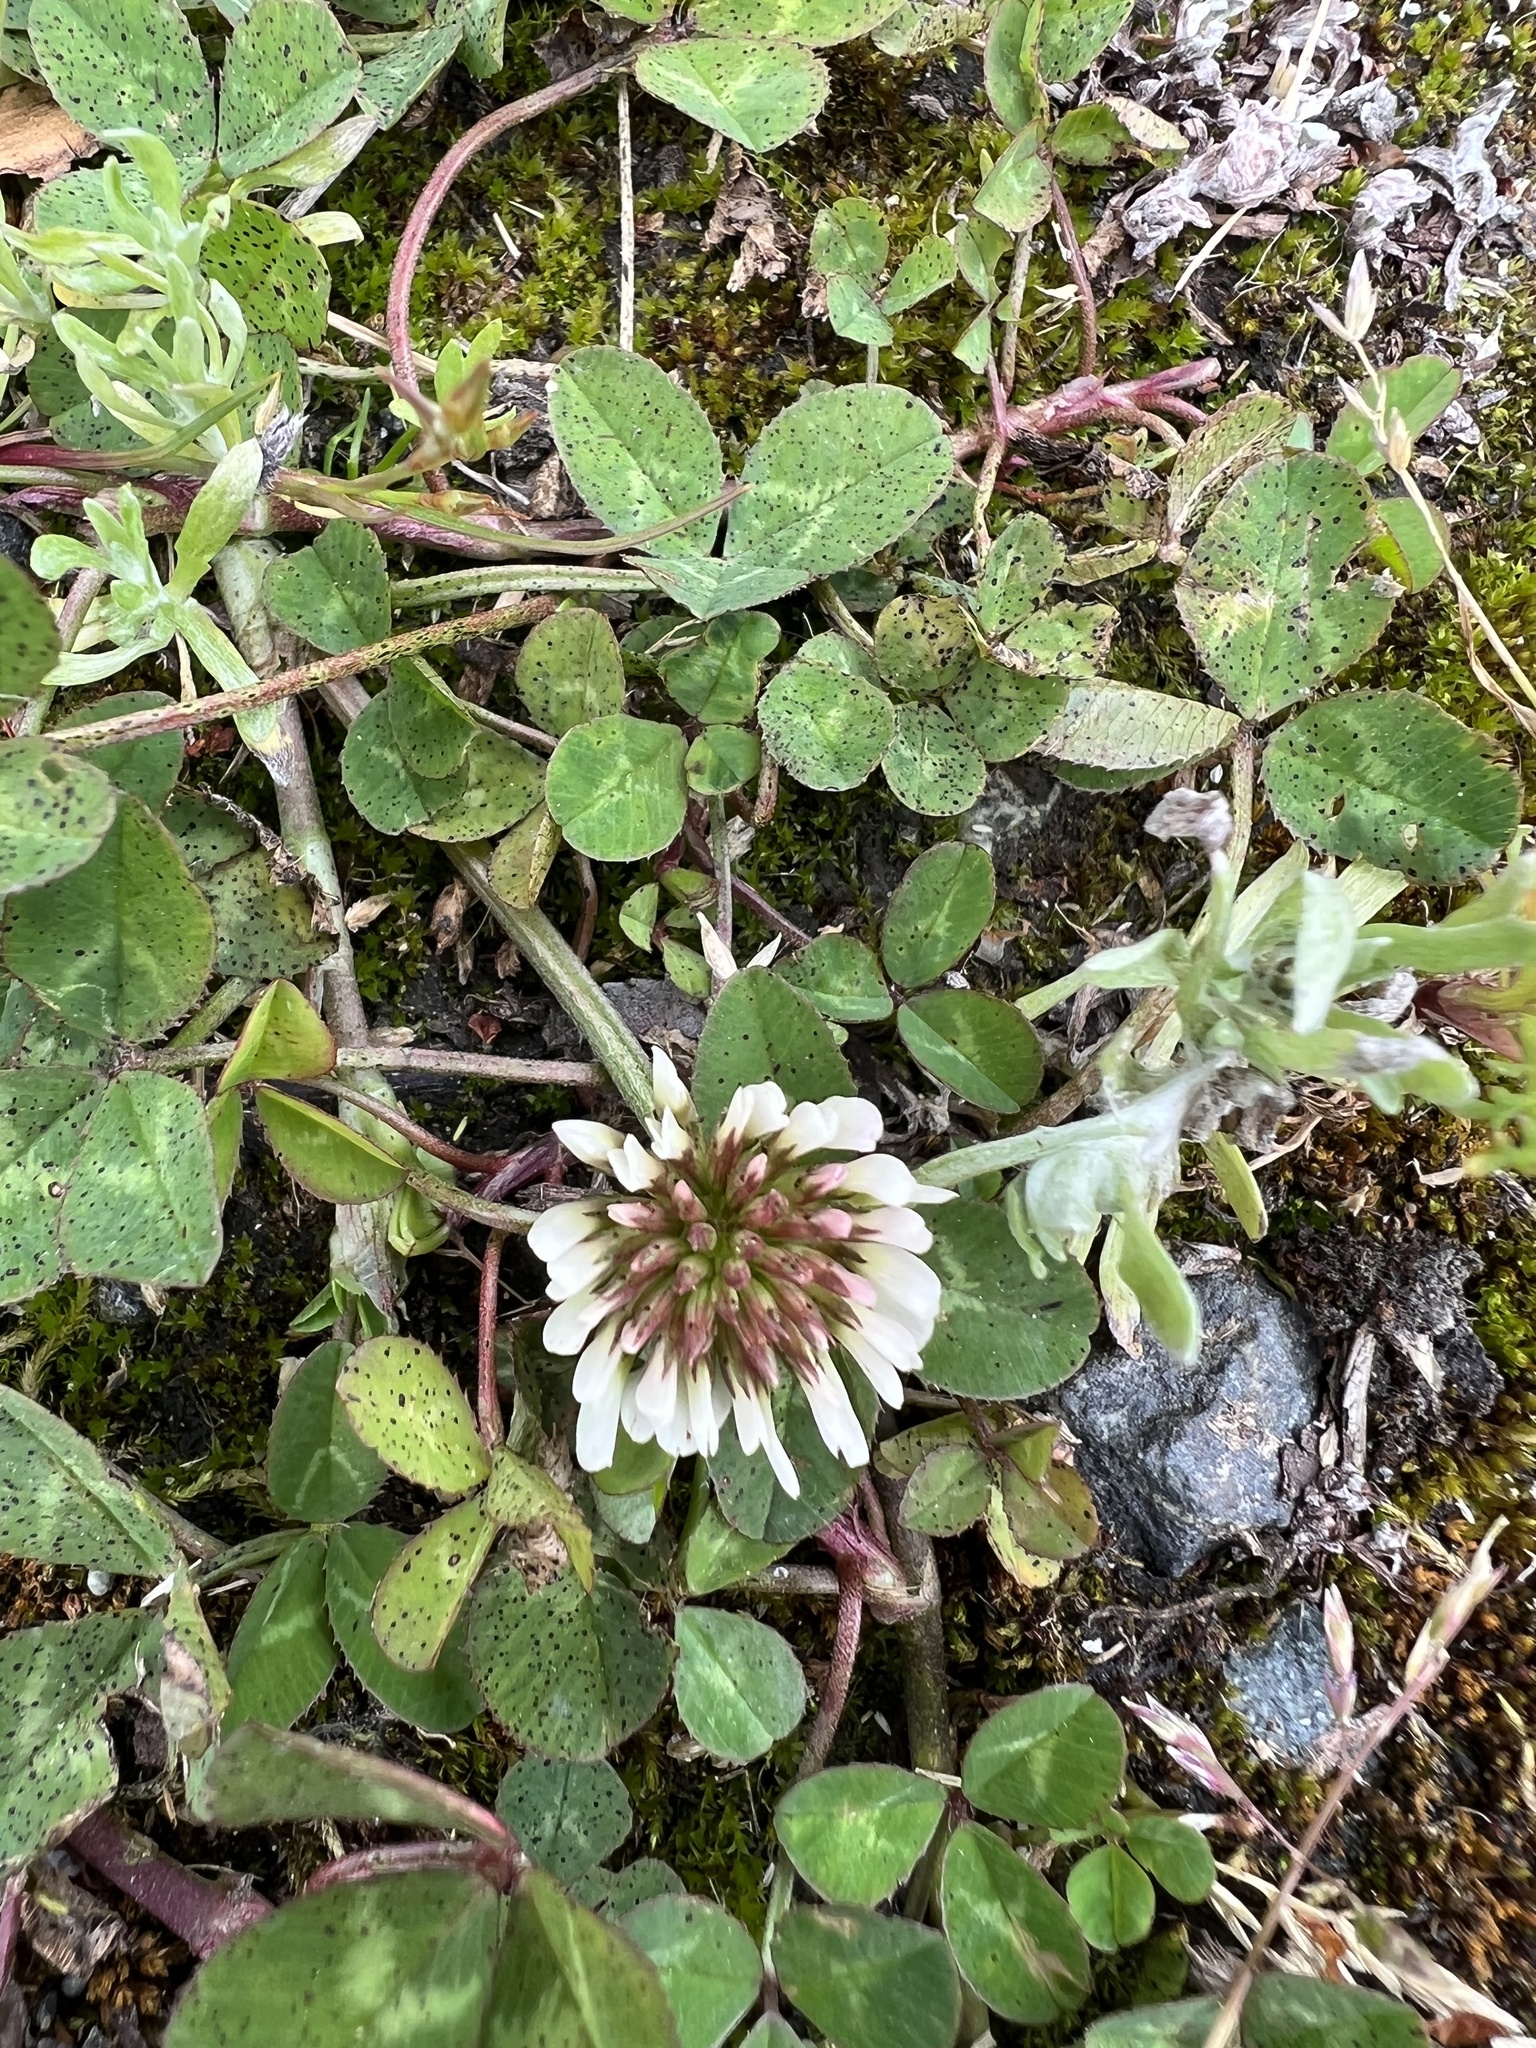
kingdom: Plantae
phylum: Tracheophyta
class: Magnoliopsida
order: Fabales
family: Fabaceae
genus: Trifolium
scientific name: Trifolium repens
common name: White clover
